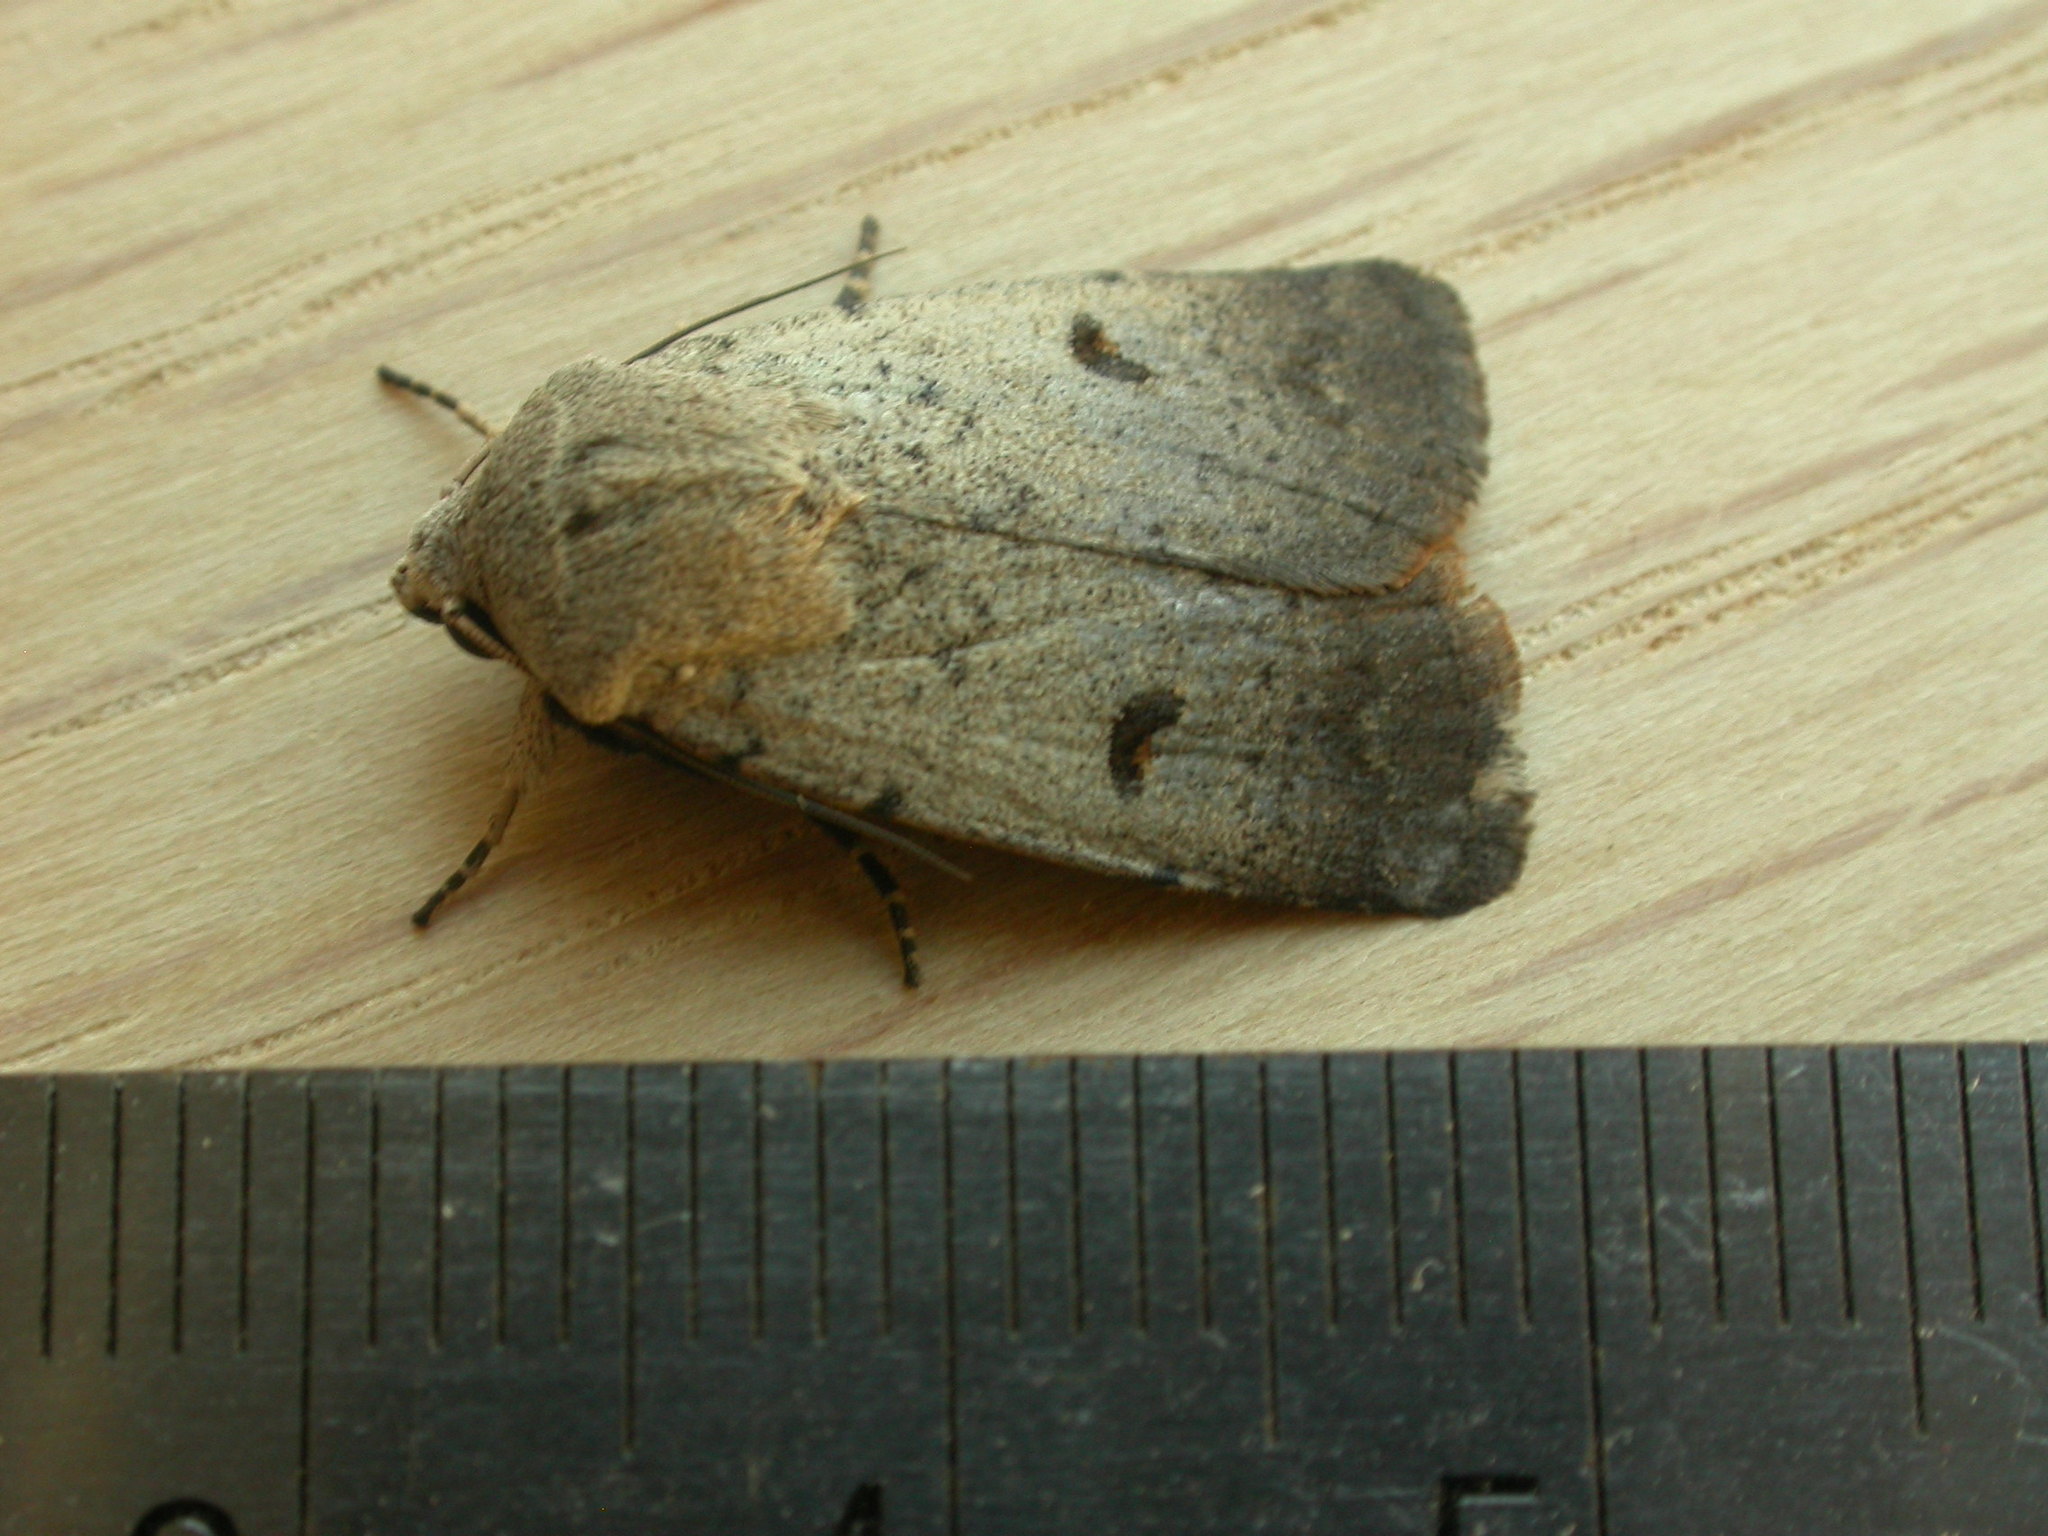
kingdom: Animalia
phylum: Arthropoda
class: Insecta
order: Lepidoptera
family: Noctuidae
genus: Proteuxoa
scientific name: Proteuxoa tibiata
